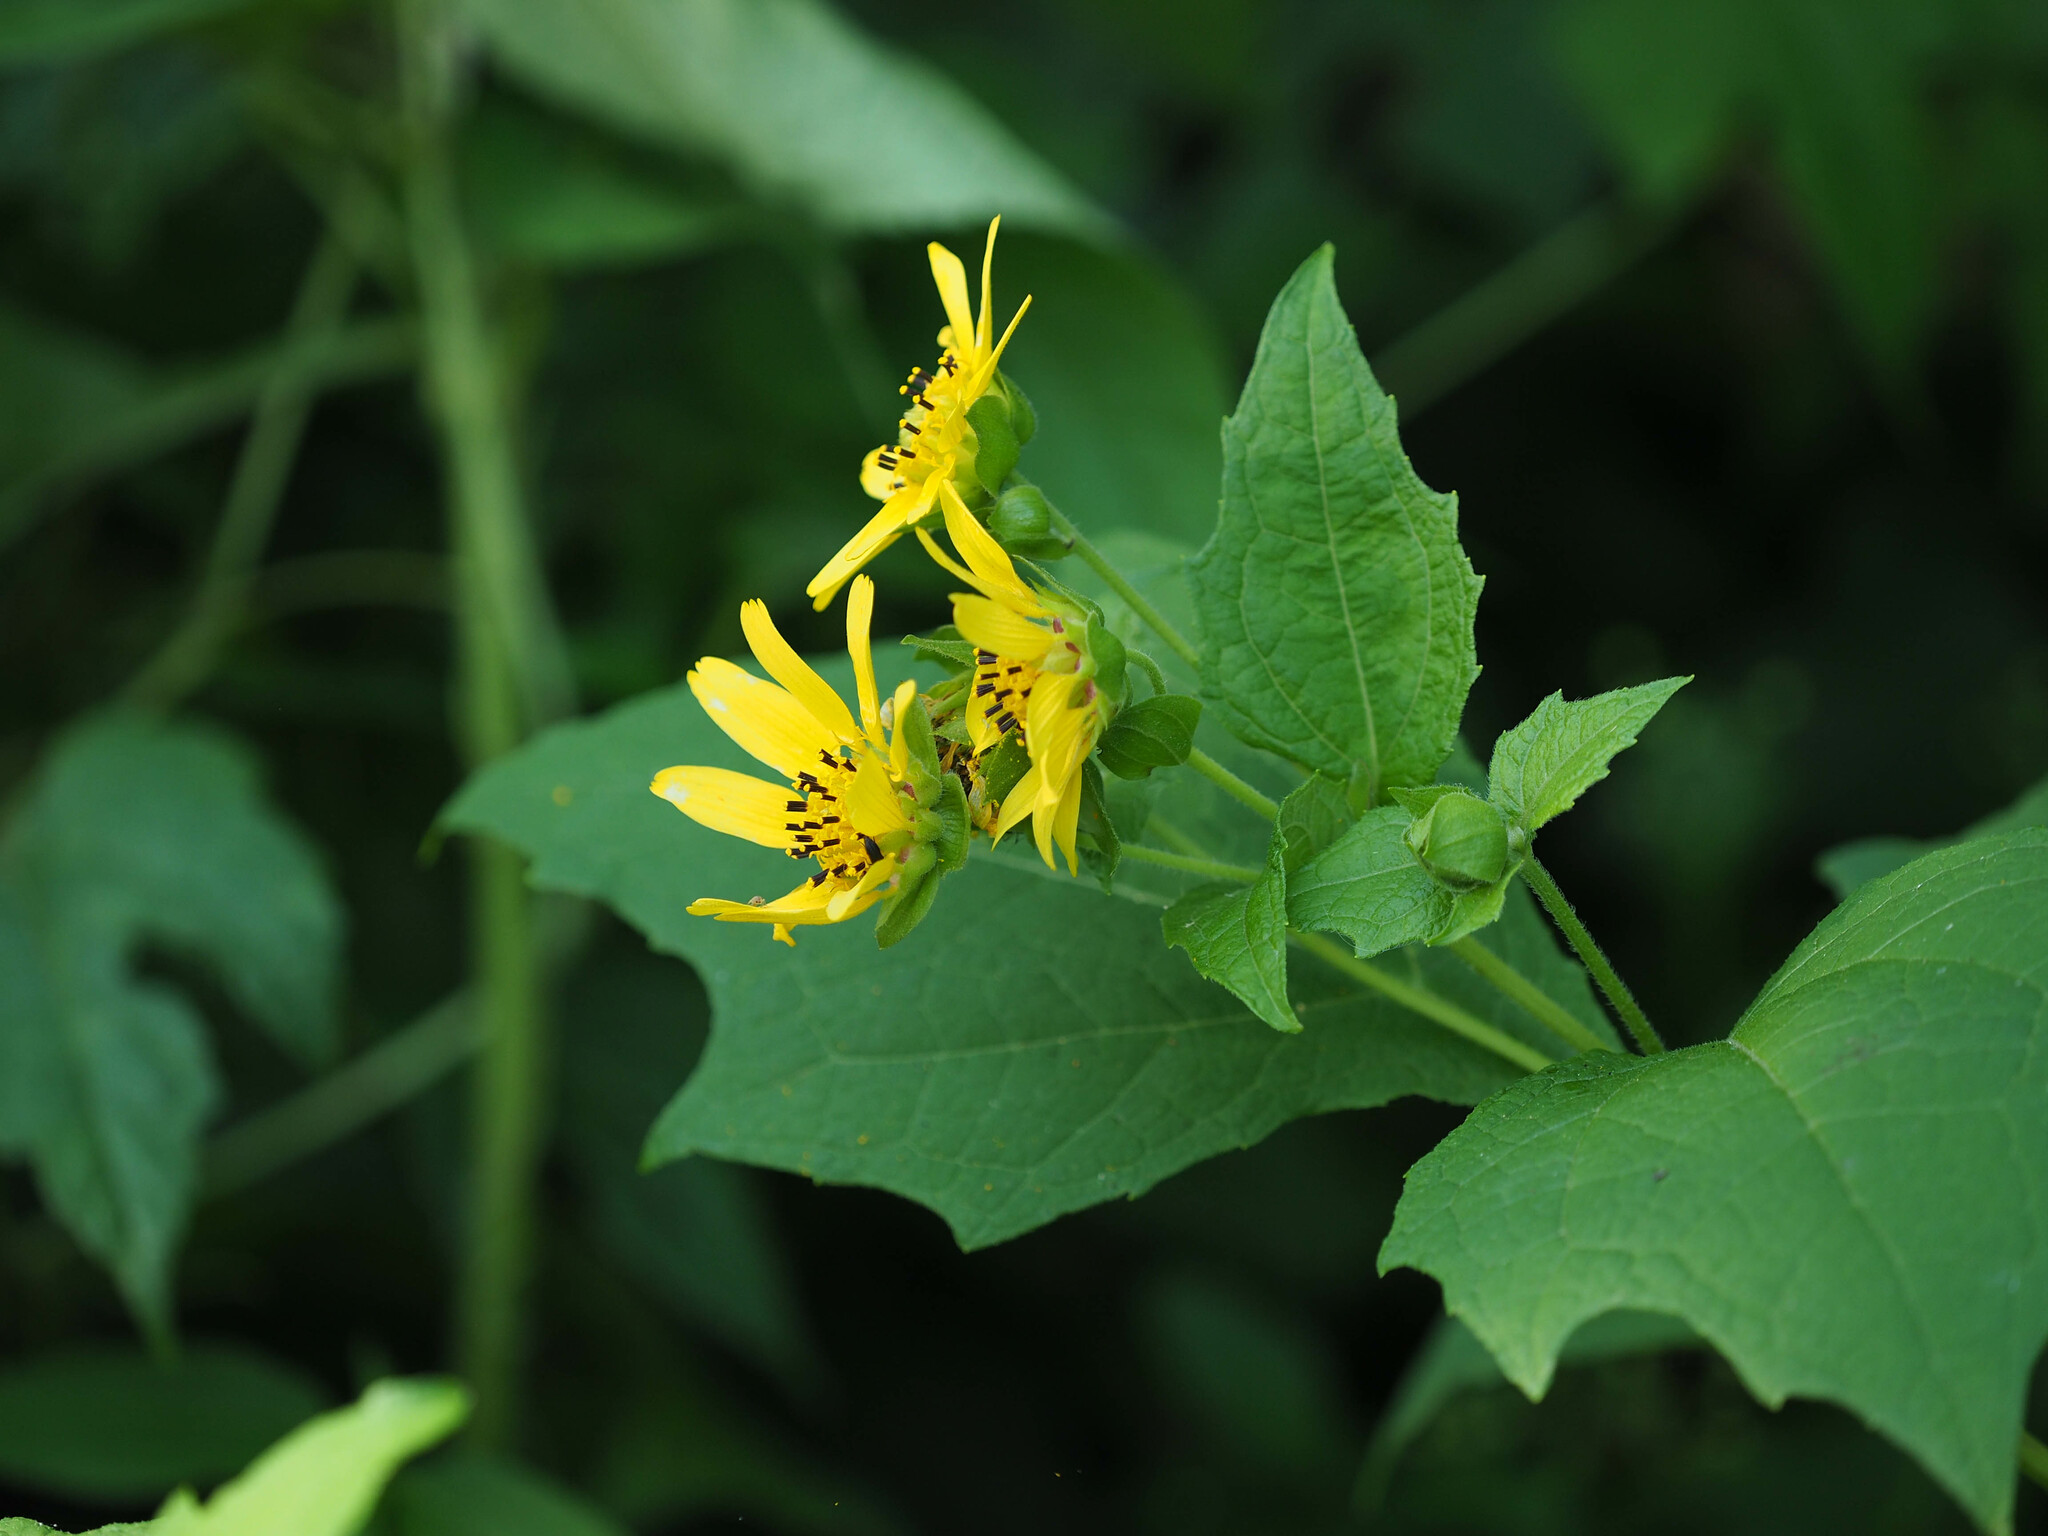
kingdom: Plantae
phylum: Tracheophyta
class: Magnoliopsida
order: Asterales
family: Asteraceae
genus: Smallanthus
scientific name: Smallanthus uvedalia
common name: Bear's-foot
